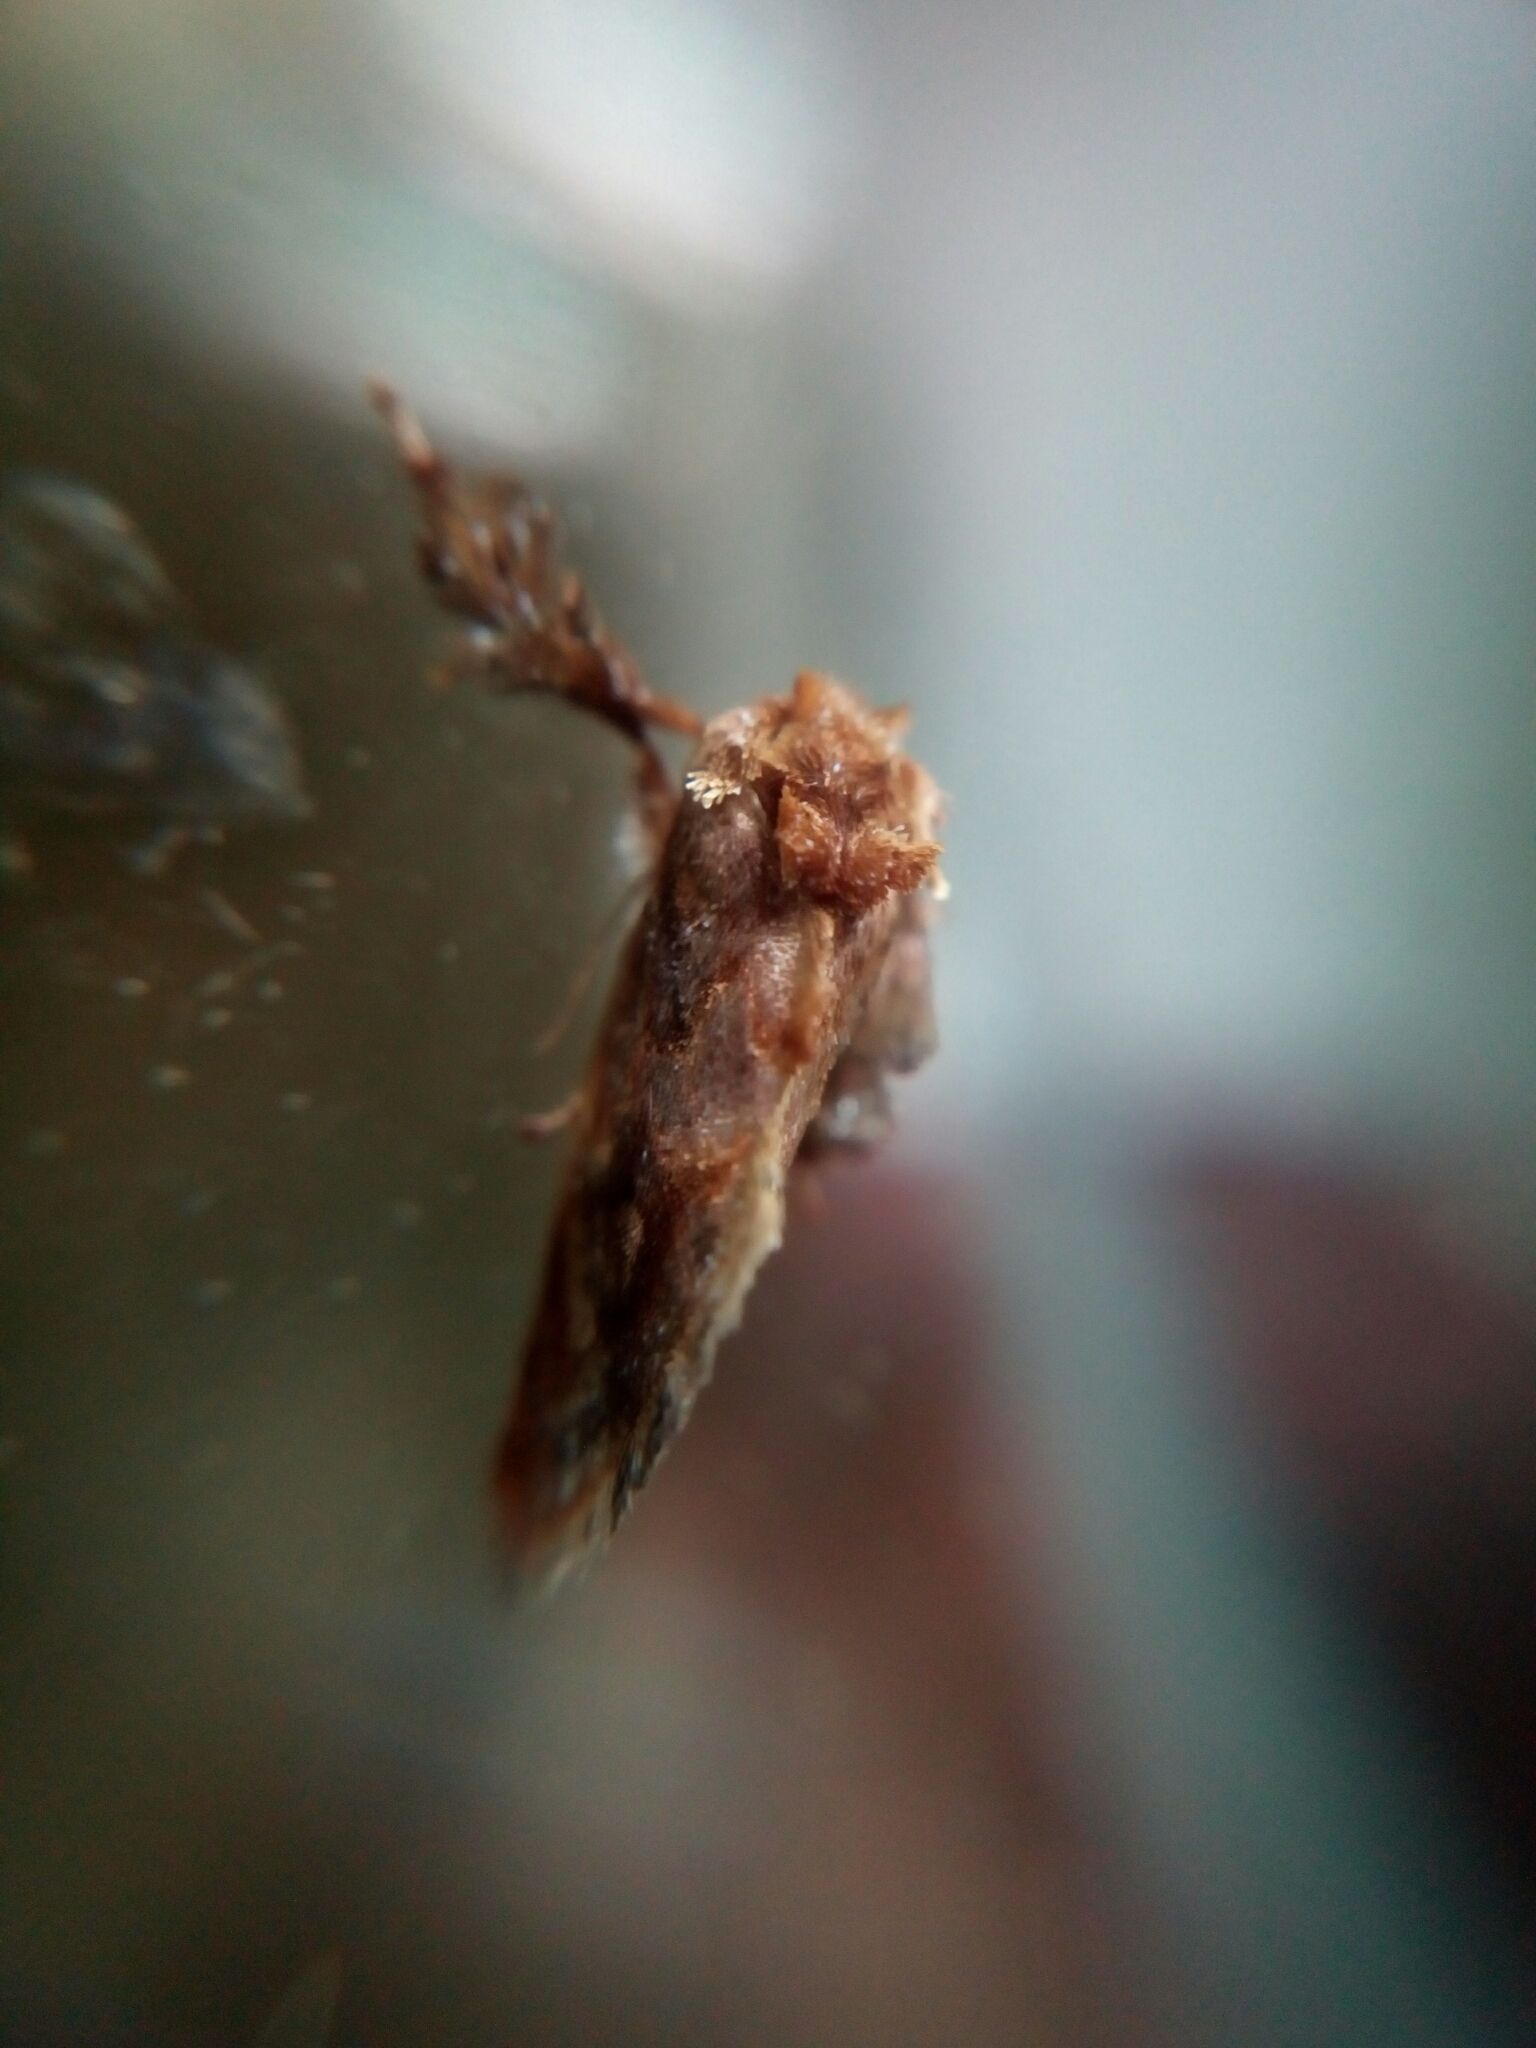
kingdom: Animalia
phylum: Arthropoda
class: Insecta
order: Lepidoptera
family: Limacodidae
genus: Isochaetes
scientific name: Isochaetes beutenmuelleri
